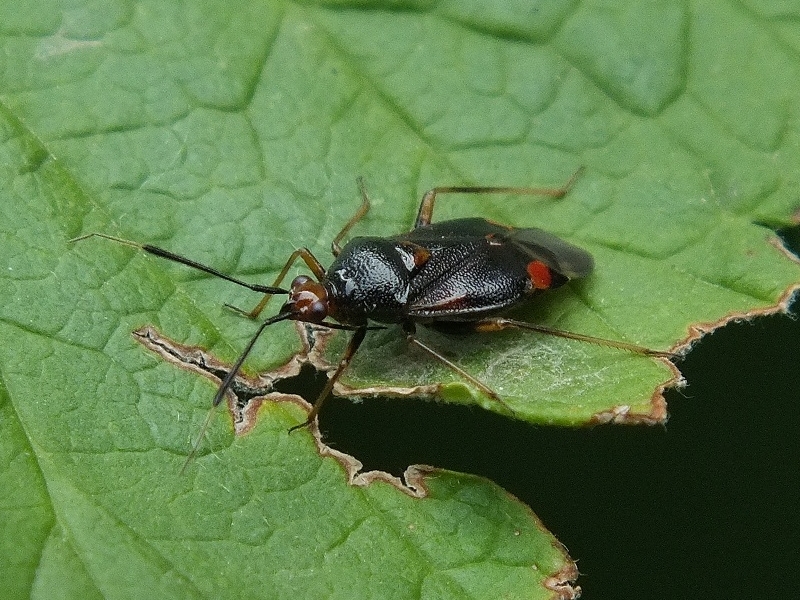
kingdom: Animalia
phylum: Arthropoda
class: Insecta
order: Hemiptera
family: Miridae
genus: Deraeocoris
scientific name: Deraeocoris ruber
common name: Plant bug
